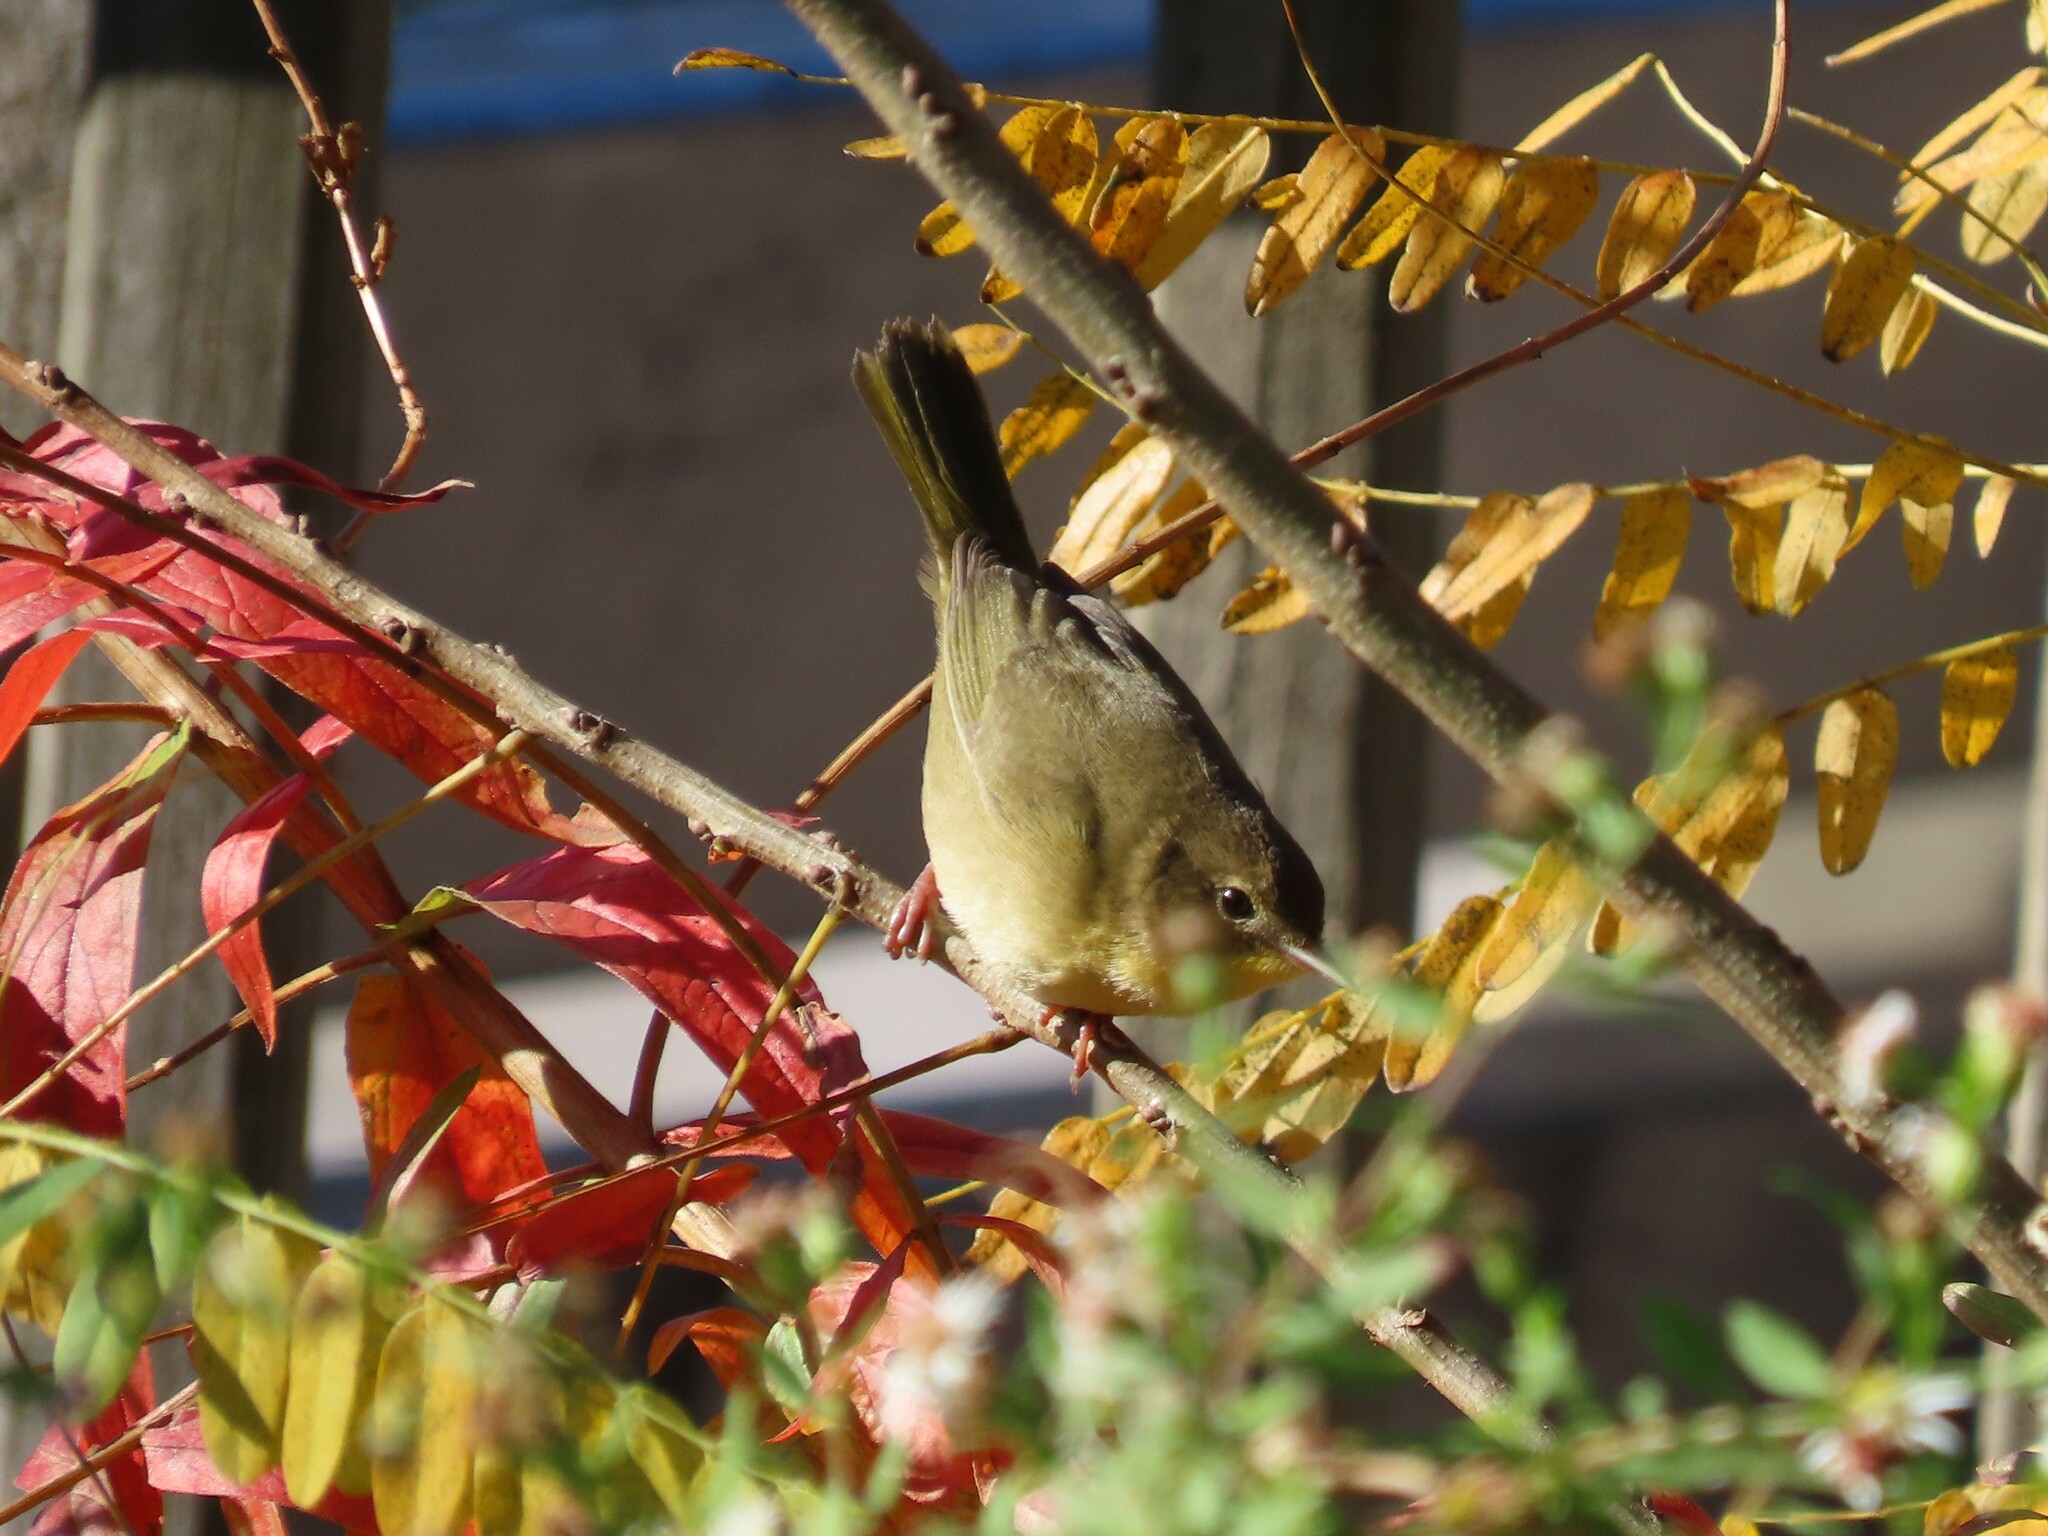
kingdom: Animalia
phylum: Chordata
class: Aves
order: Passeriformes
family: Parulidae
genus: Geothlypis
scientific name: Geothlypis trichas
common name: Common yellowthroat
